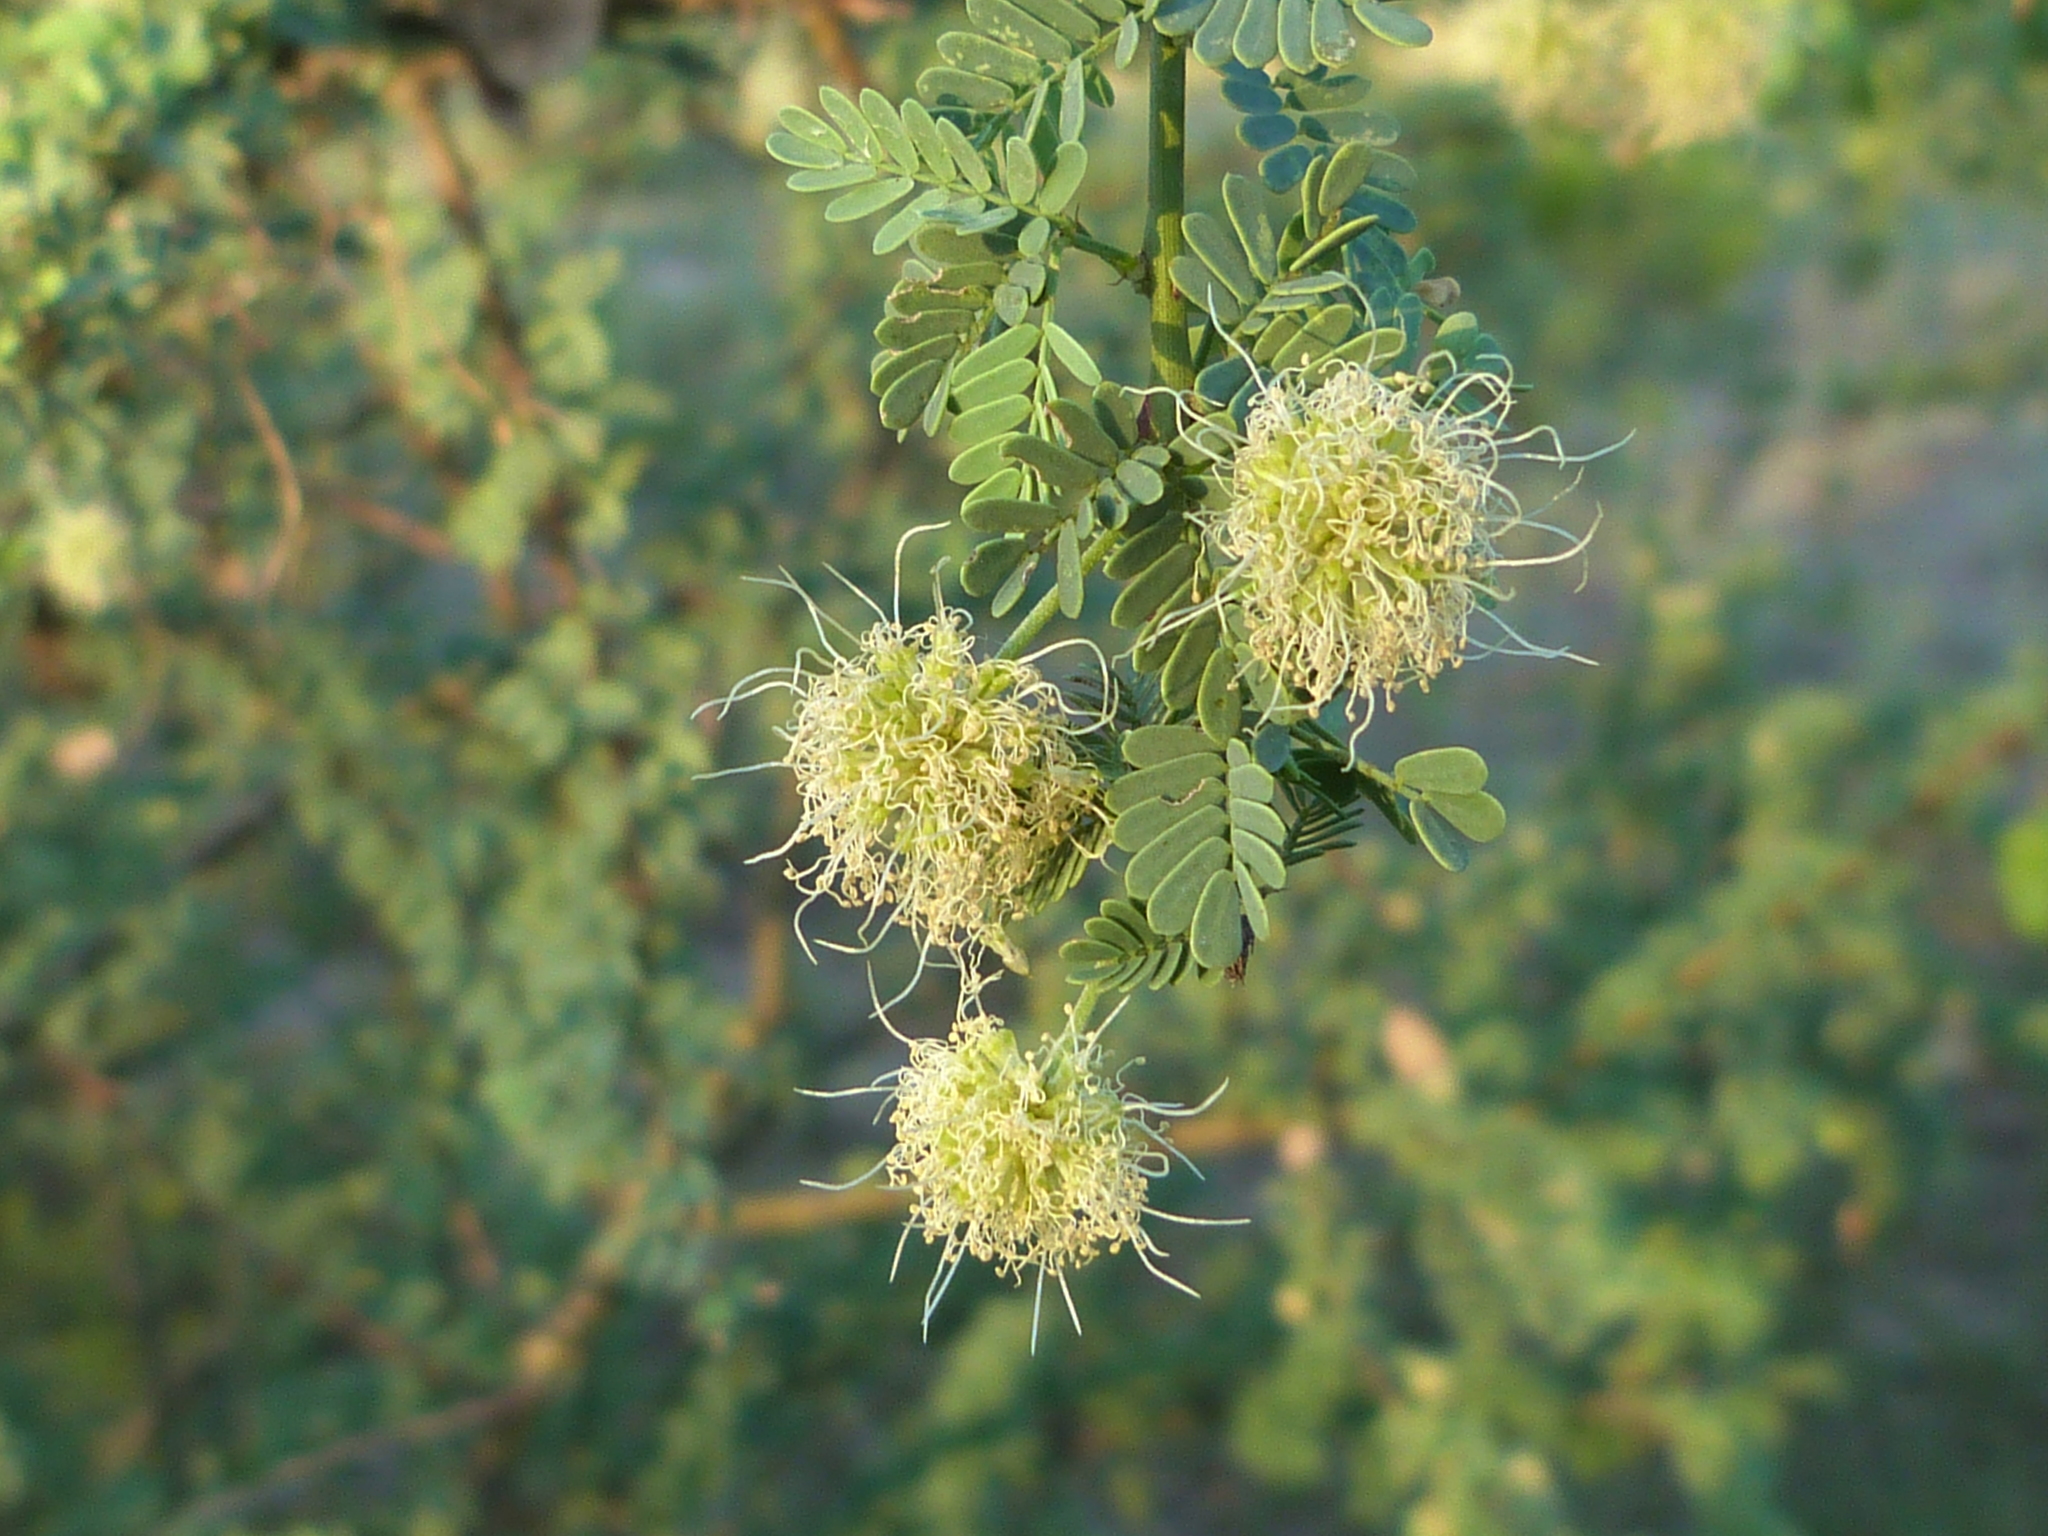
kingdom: Plantae
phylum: Tracheophyta
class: Magnoliopsida
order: Fabales
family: Fabaceae
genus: Mimosa
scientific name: Mimosa detinens
